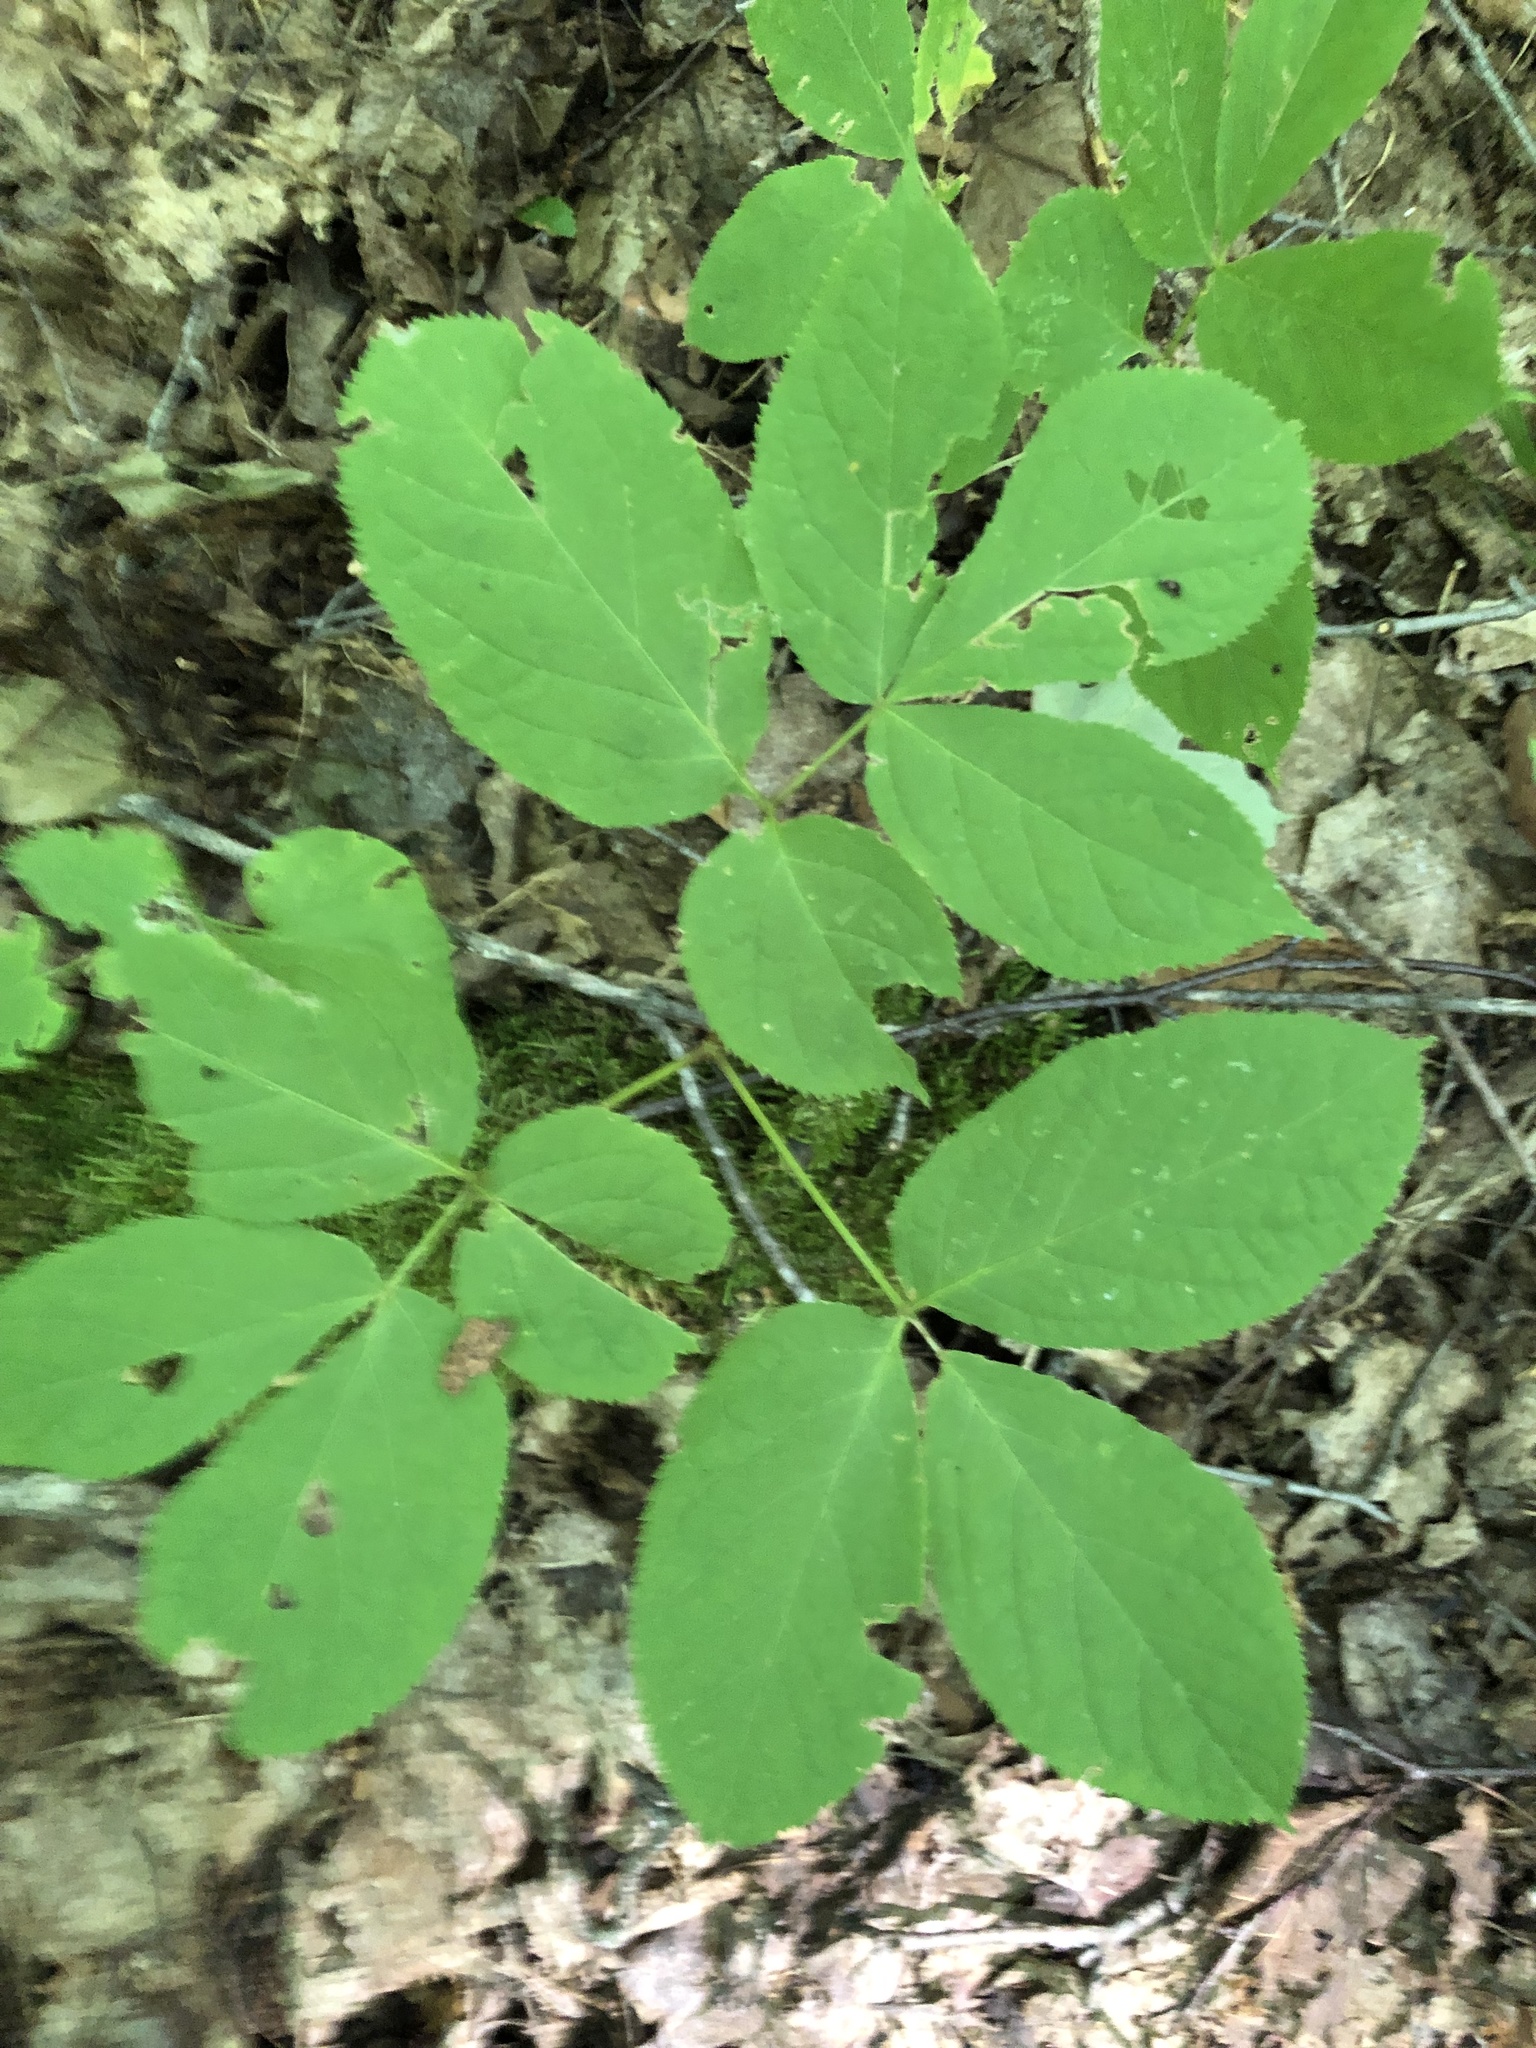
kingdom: Plantae
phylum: Tracheophyta
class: Magnoliopsida
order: Apiales
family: Araliaceae
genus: Aralia
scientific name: Aralia nudicaulis
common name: Wild sarsaparilla
